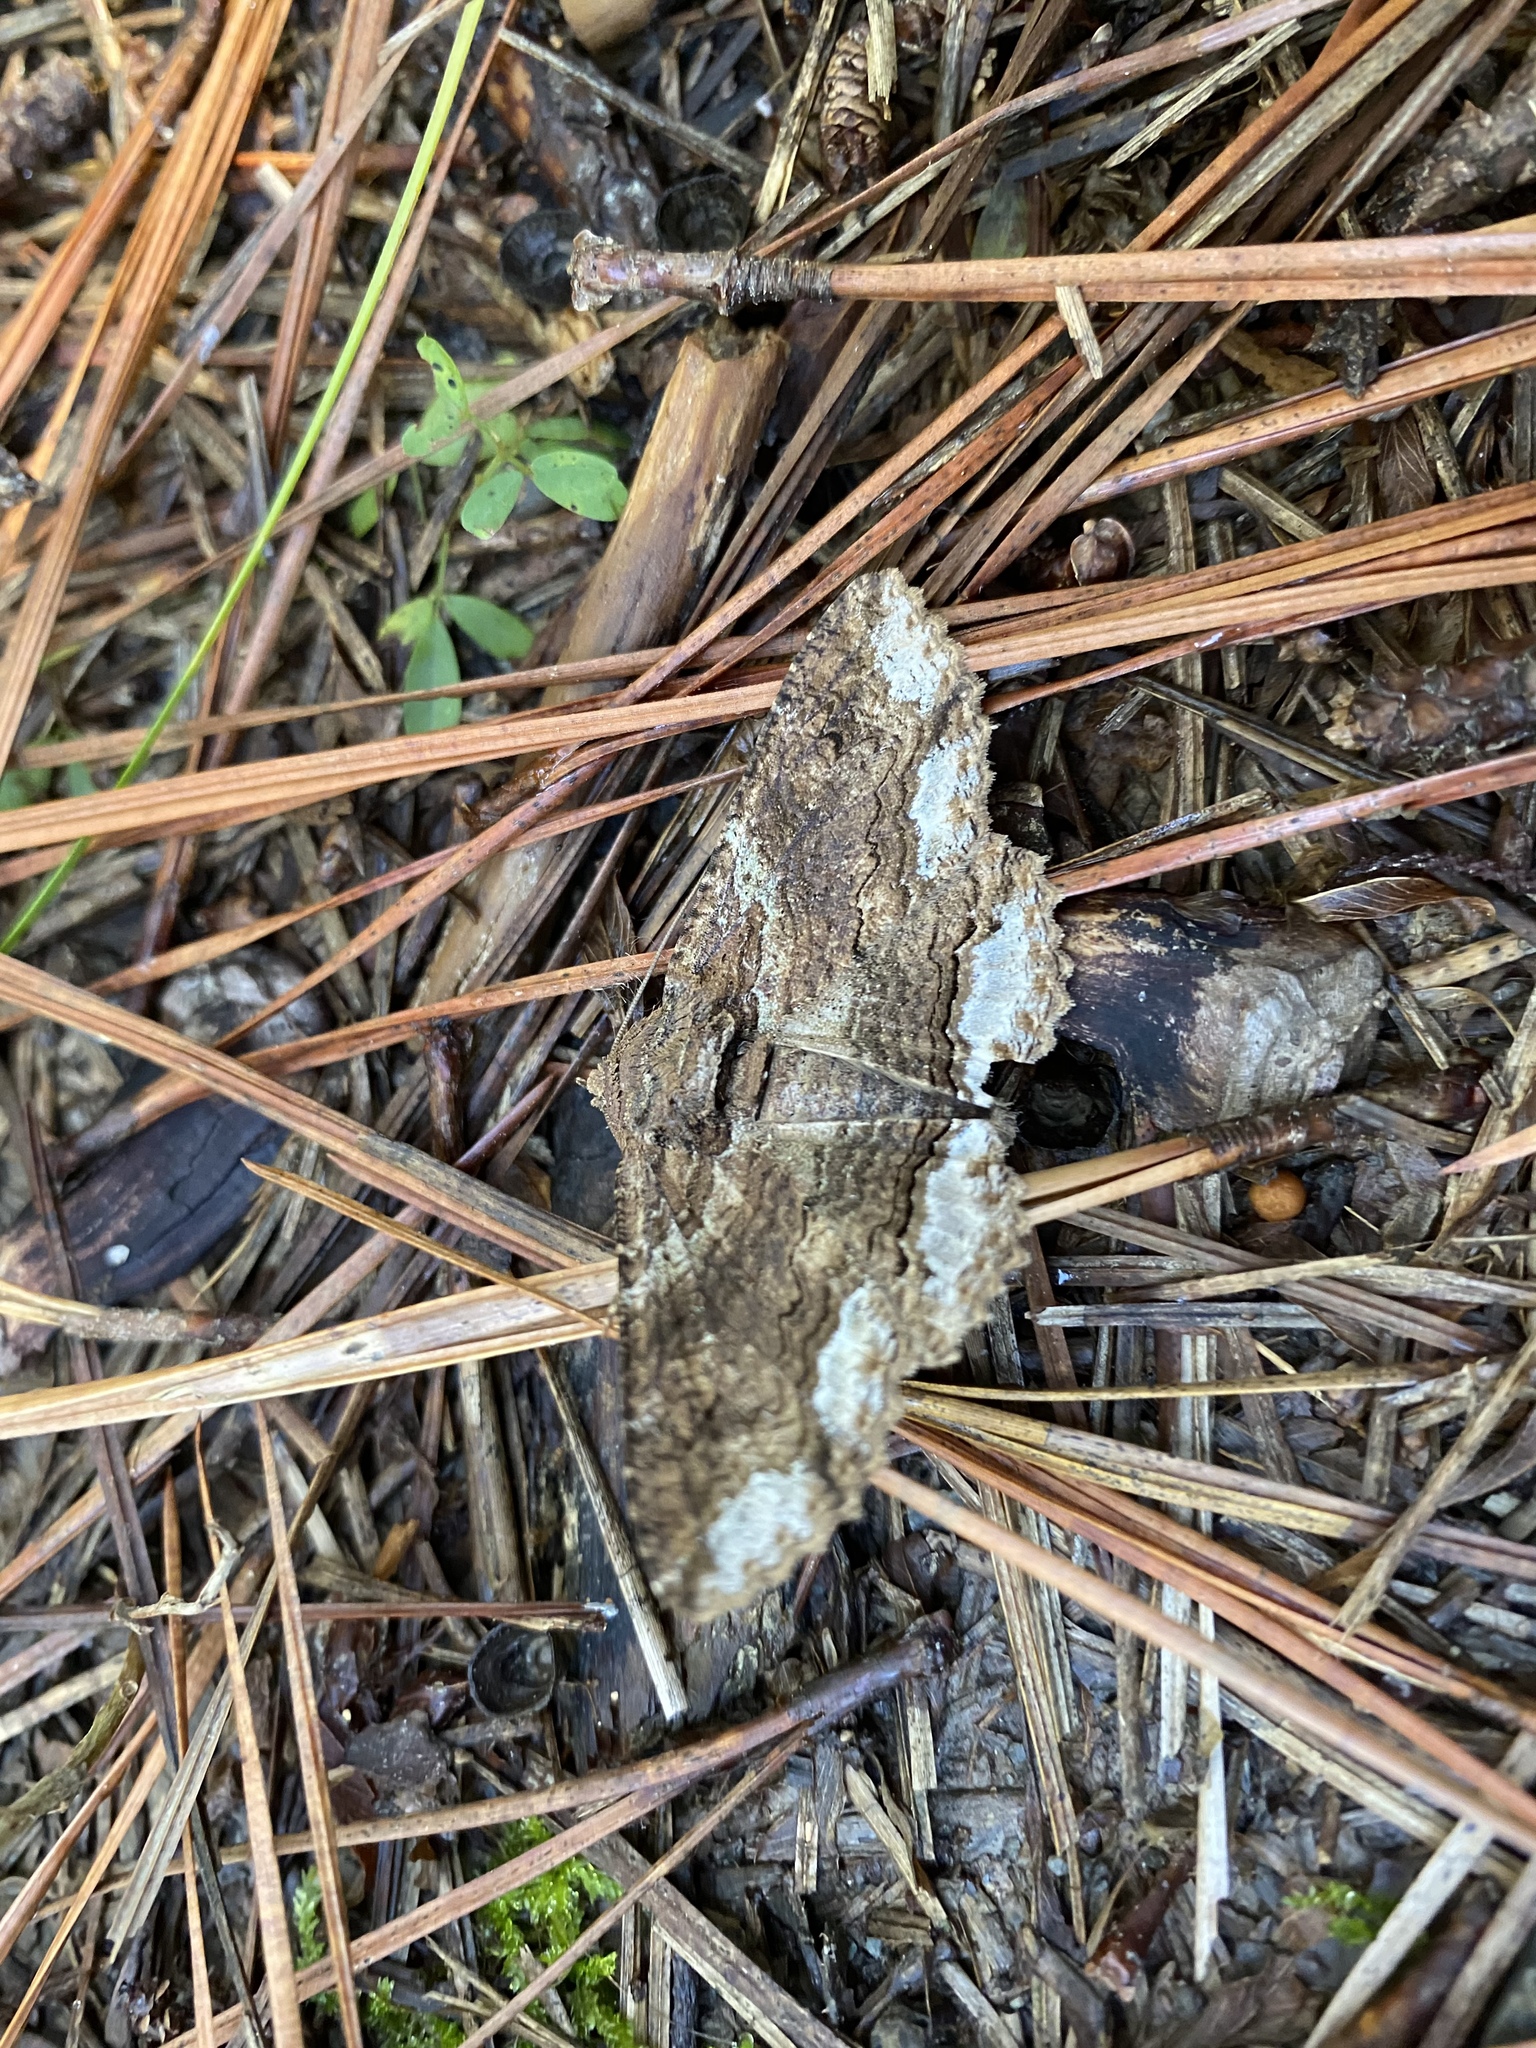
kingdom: Animalia
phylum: Arthropoda
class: Insecta
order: Lepidoptera
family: Erebidae
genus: Zale
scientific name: Zale lunata
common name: Lunate zale moth
